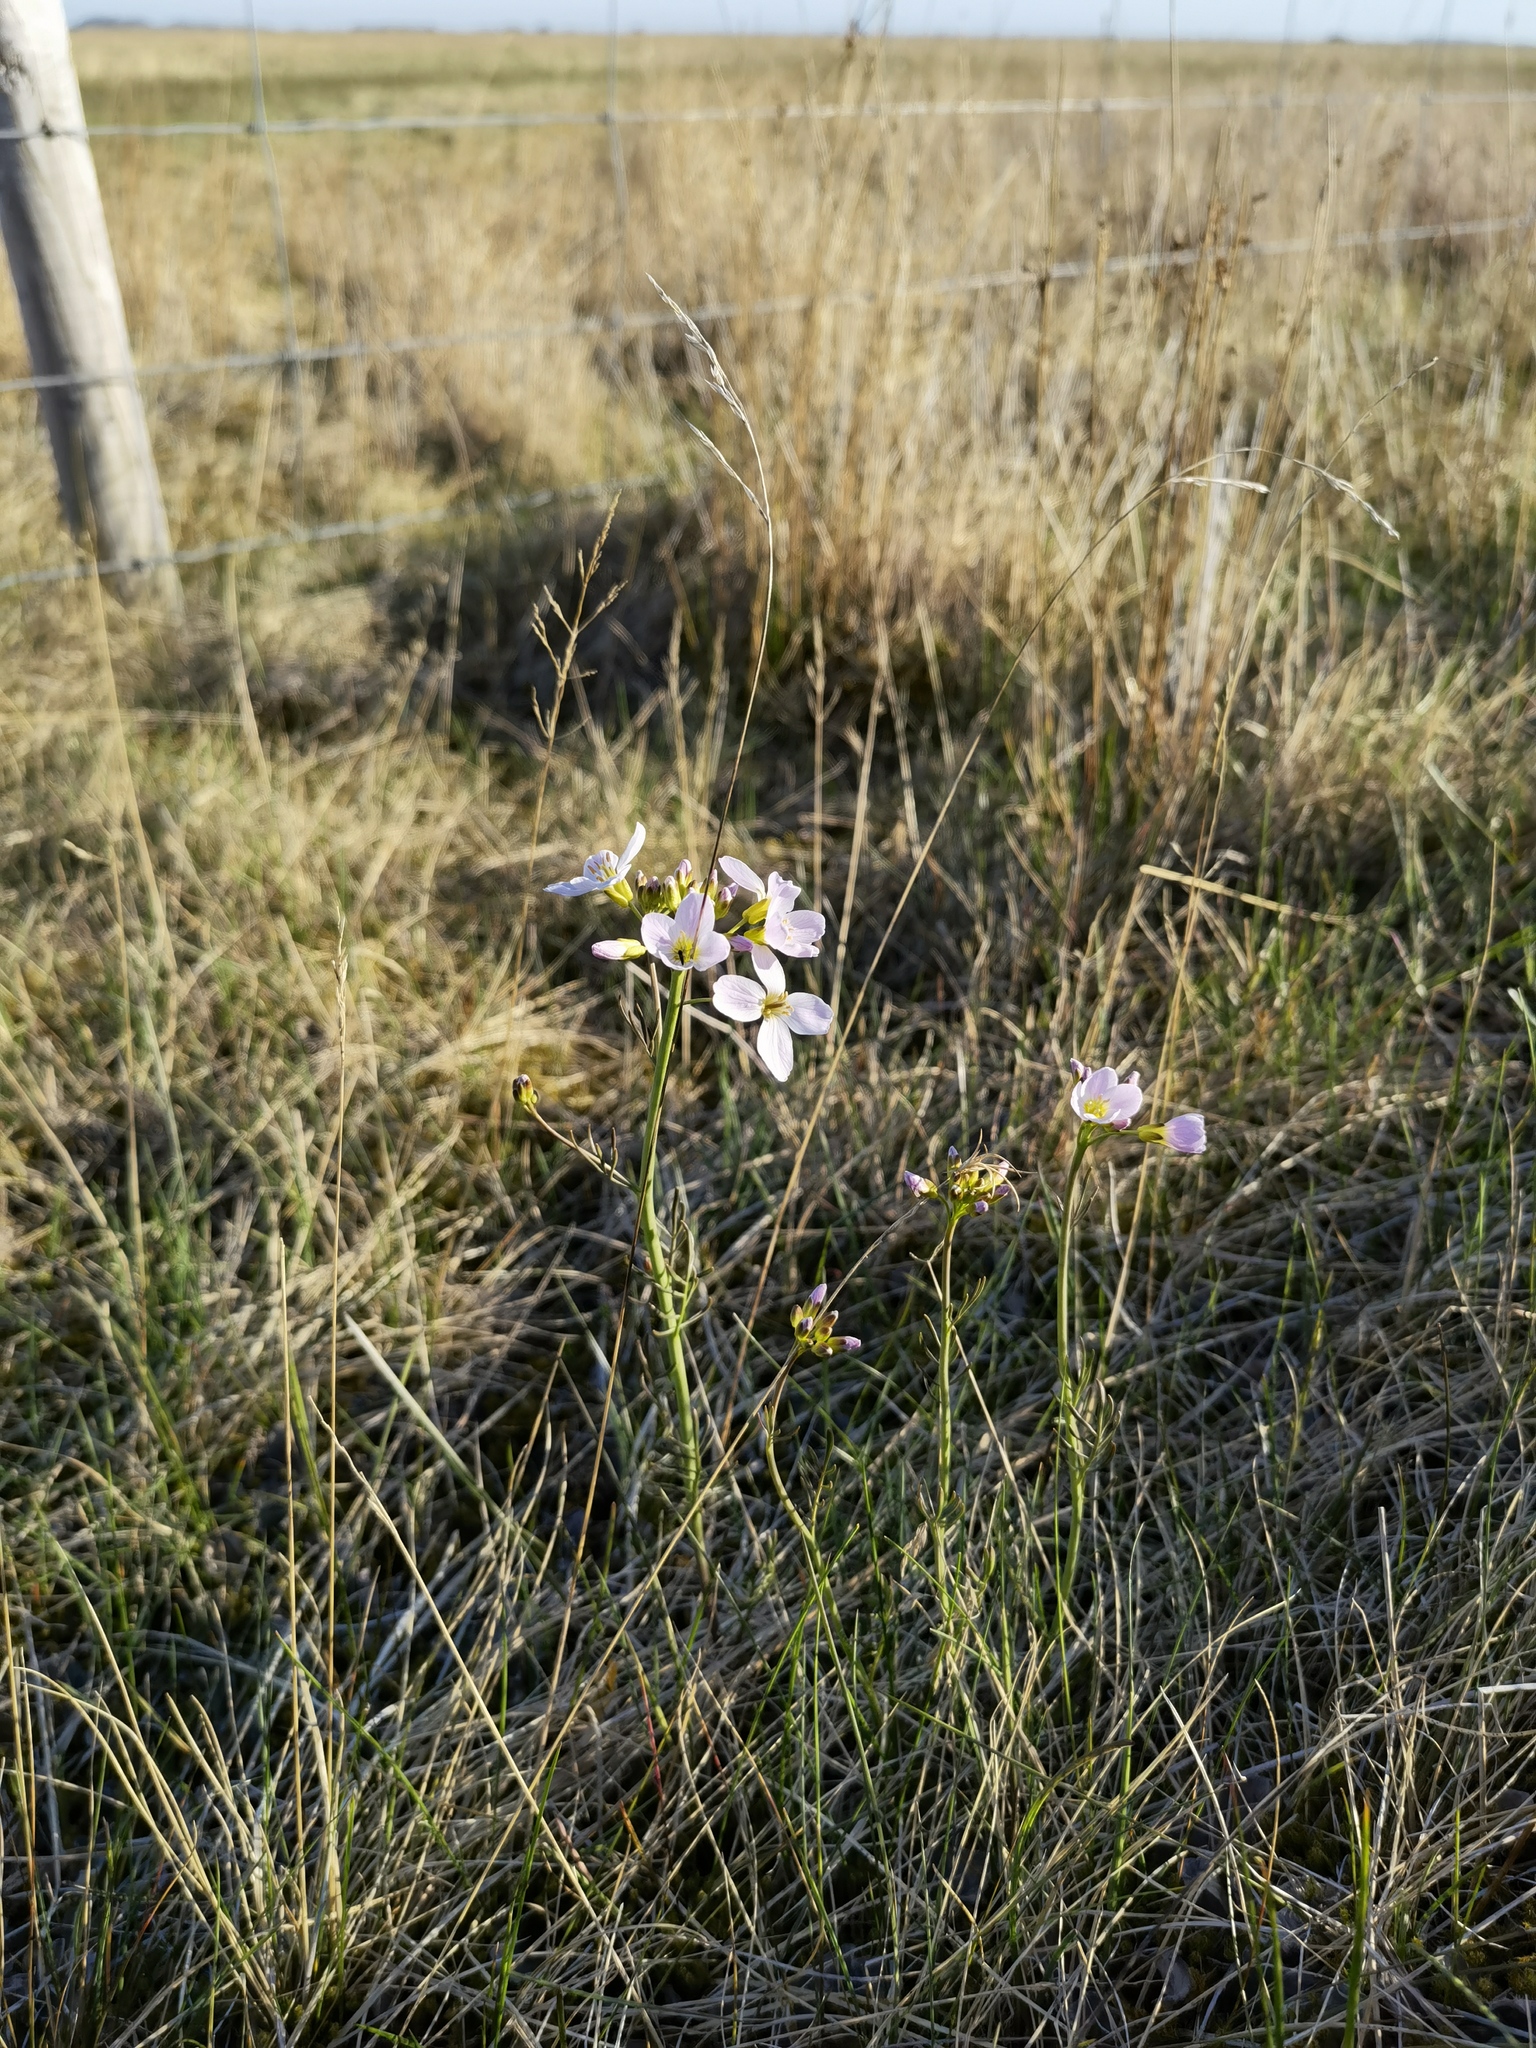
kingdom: Plantae
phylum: Tracheophyta
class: Magnoliopsida
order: Brassicales
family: Brassicaceae
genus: Cardamine
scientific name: Cardamine nymanii
